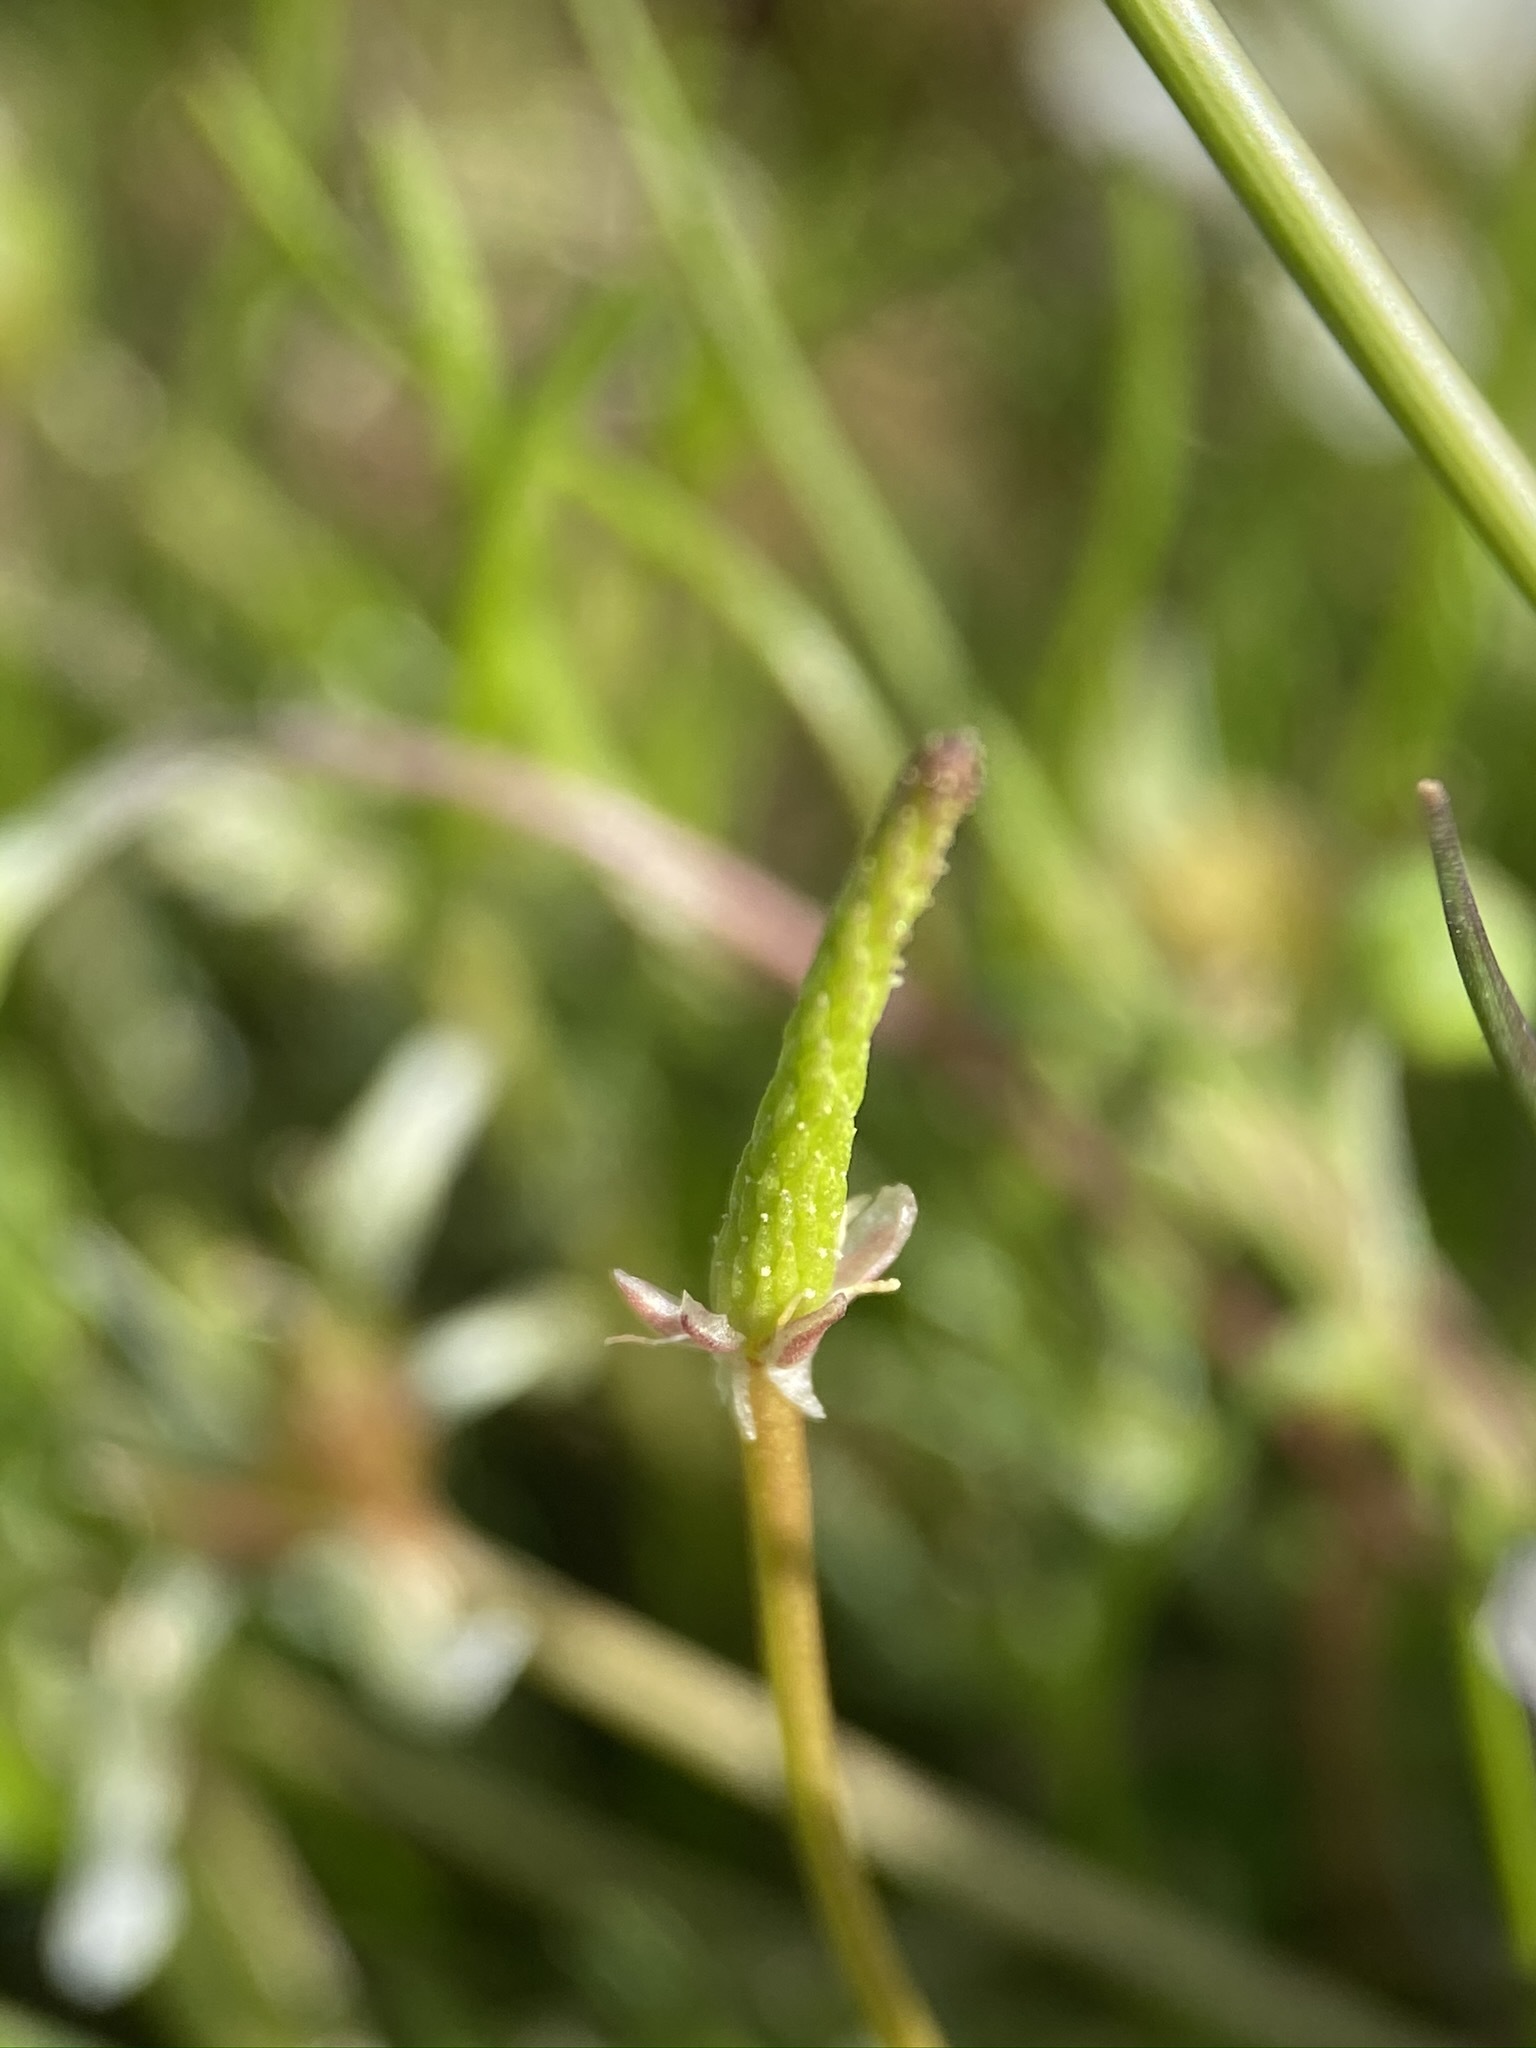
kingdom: Plantae
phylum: Tracheophyta
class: Magnoliopsida
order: Ranunculales
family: Ranunculaceae
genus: Myosurus
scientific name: Myosurus minimus
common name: Mousetail
